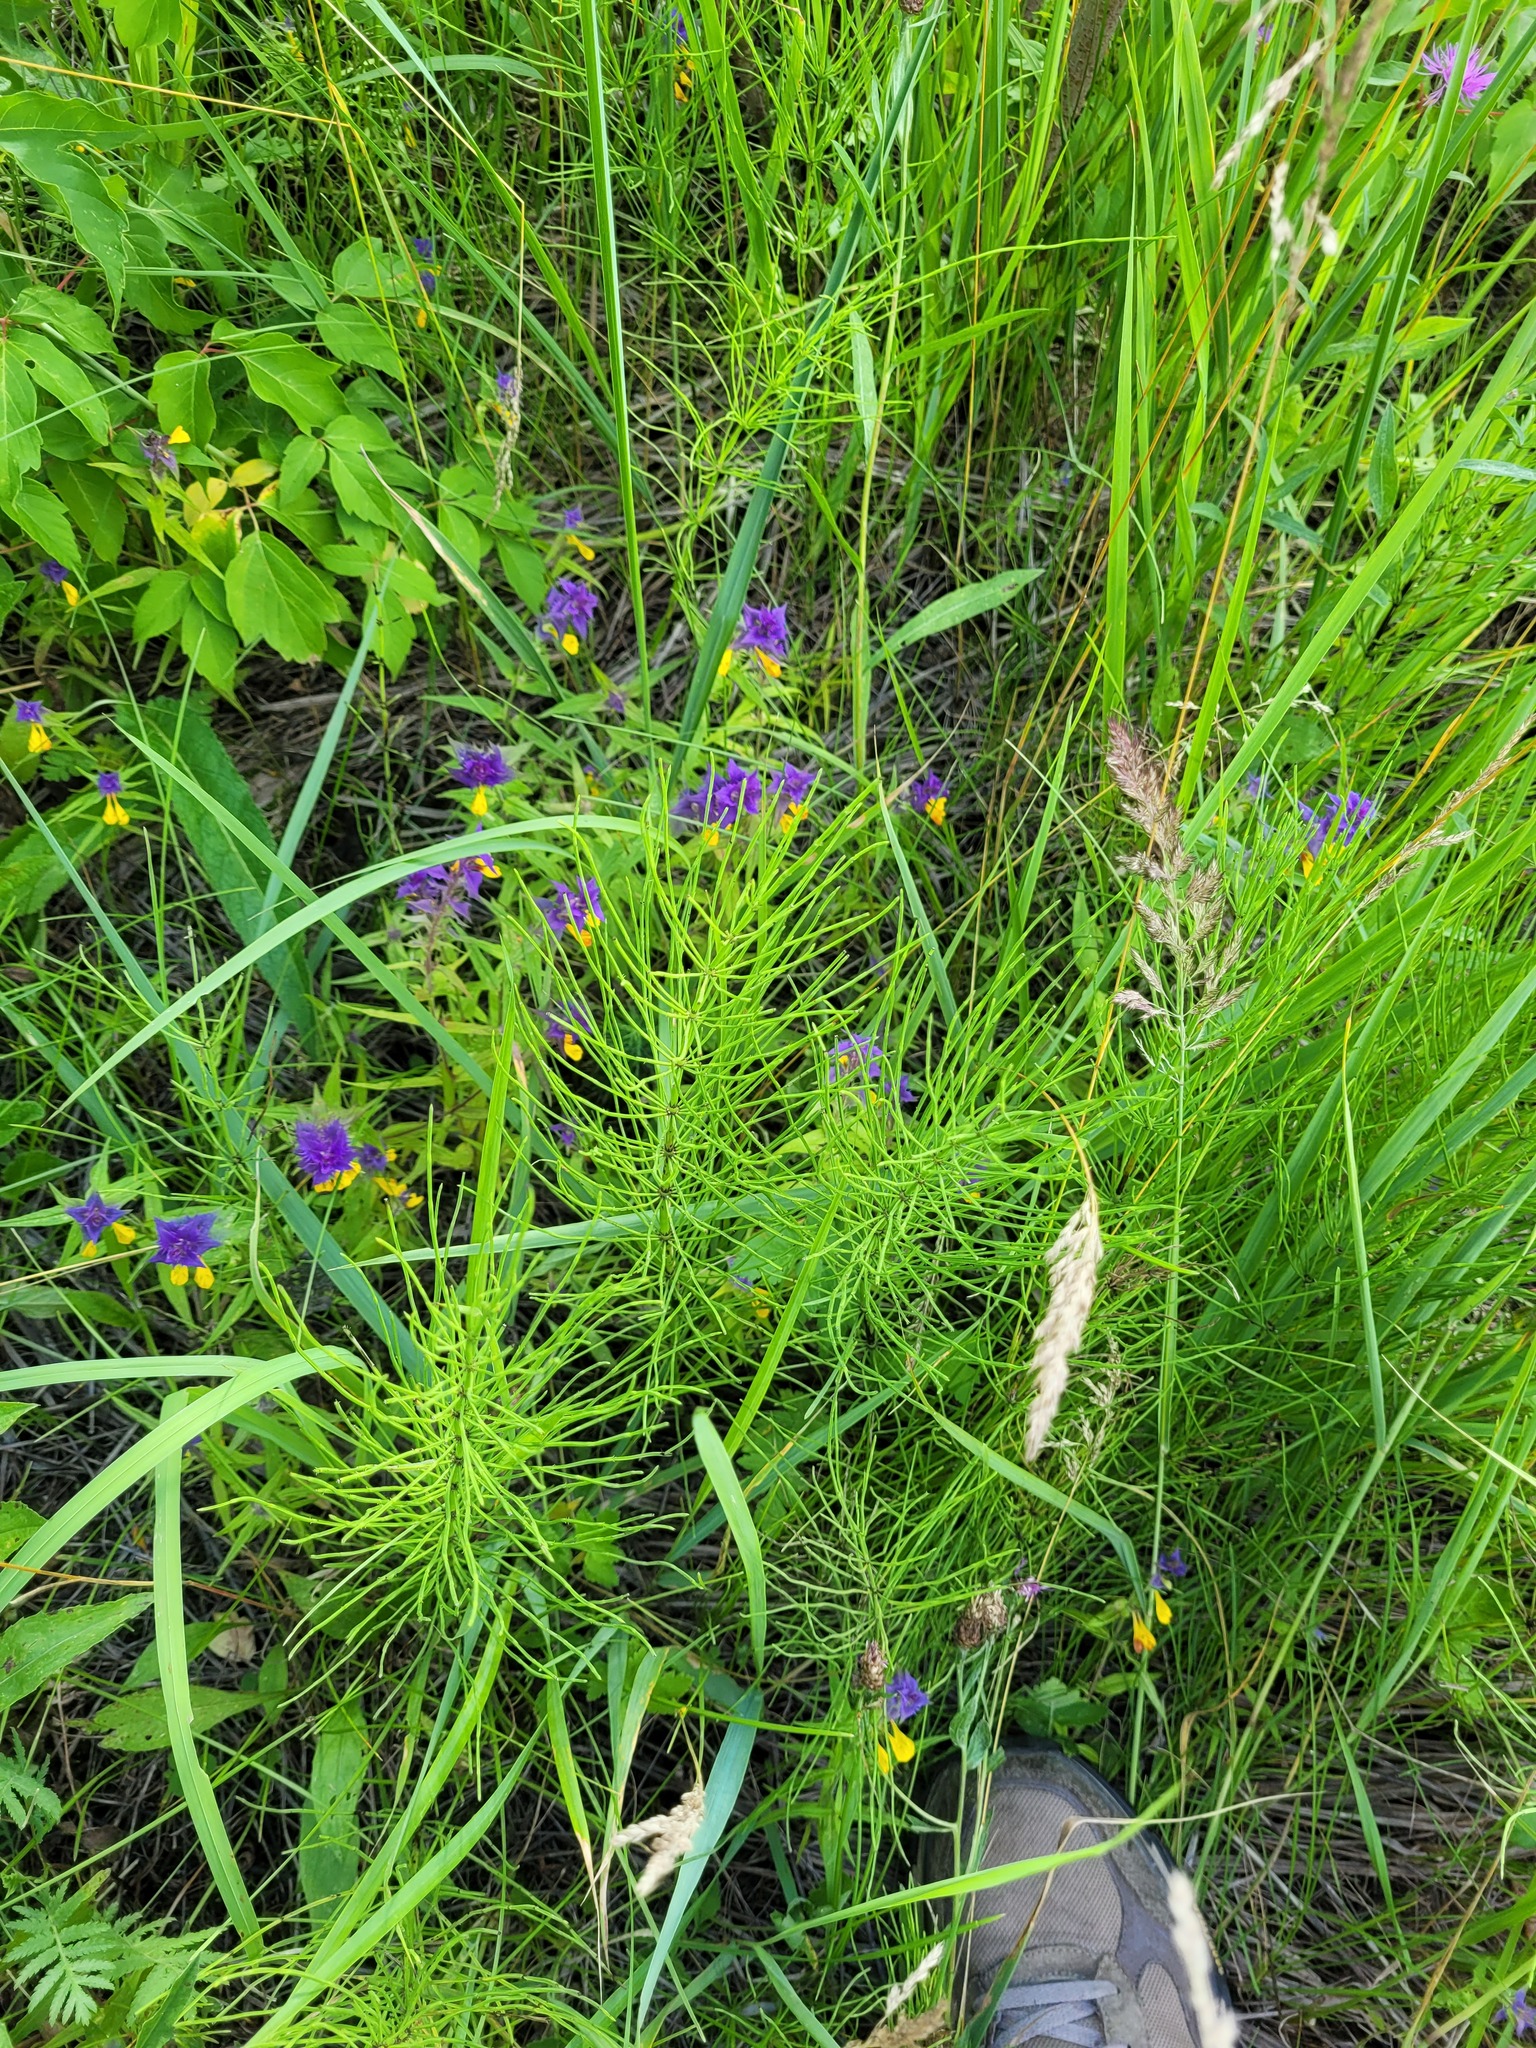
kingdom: Plantae
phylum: Tracheophyta
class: Polypodiopsida
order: Equisetales
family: Equisetaceae
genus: Equisetum
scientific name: Equisetum arvense
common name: Field horsetail
